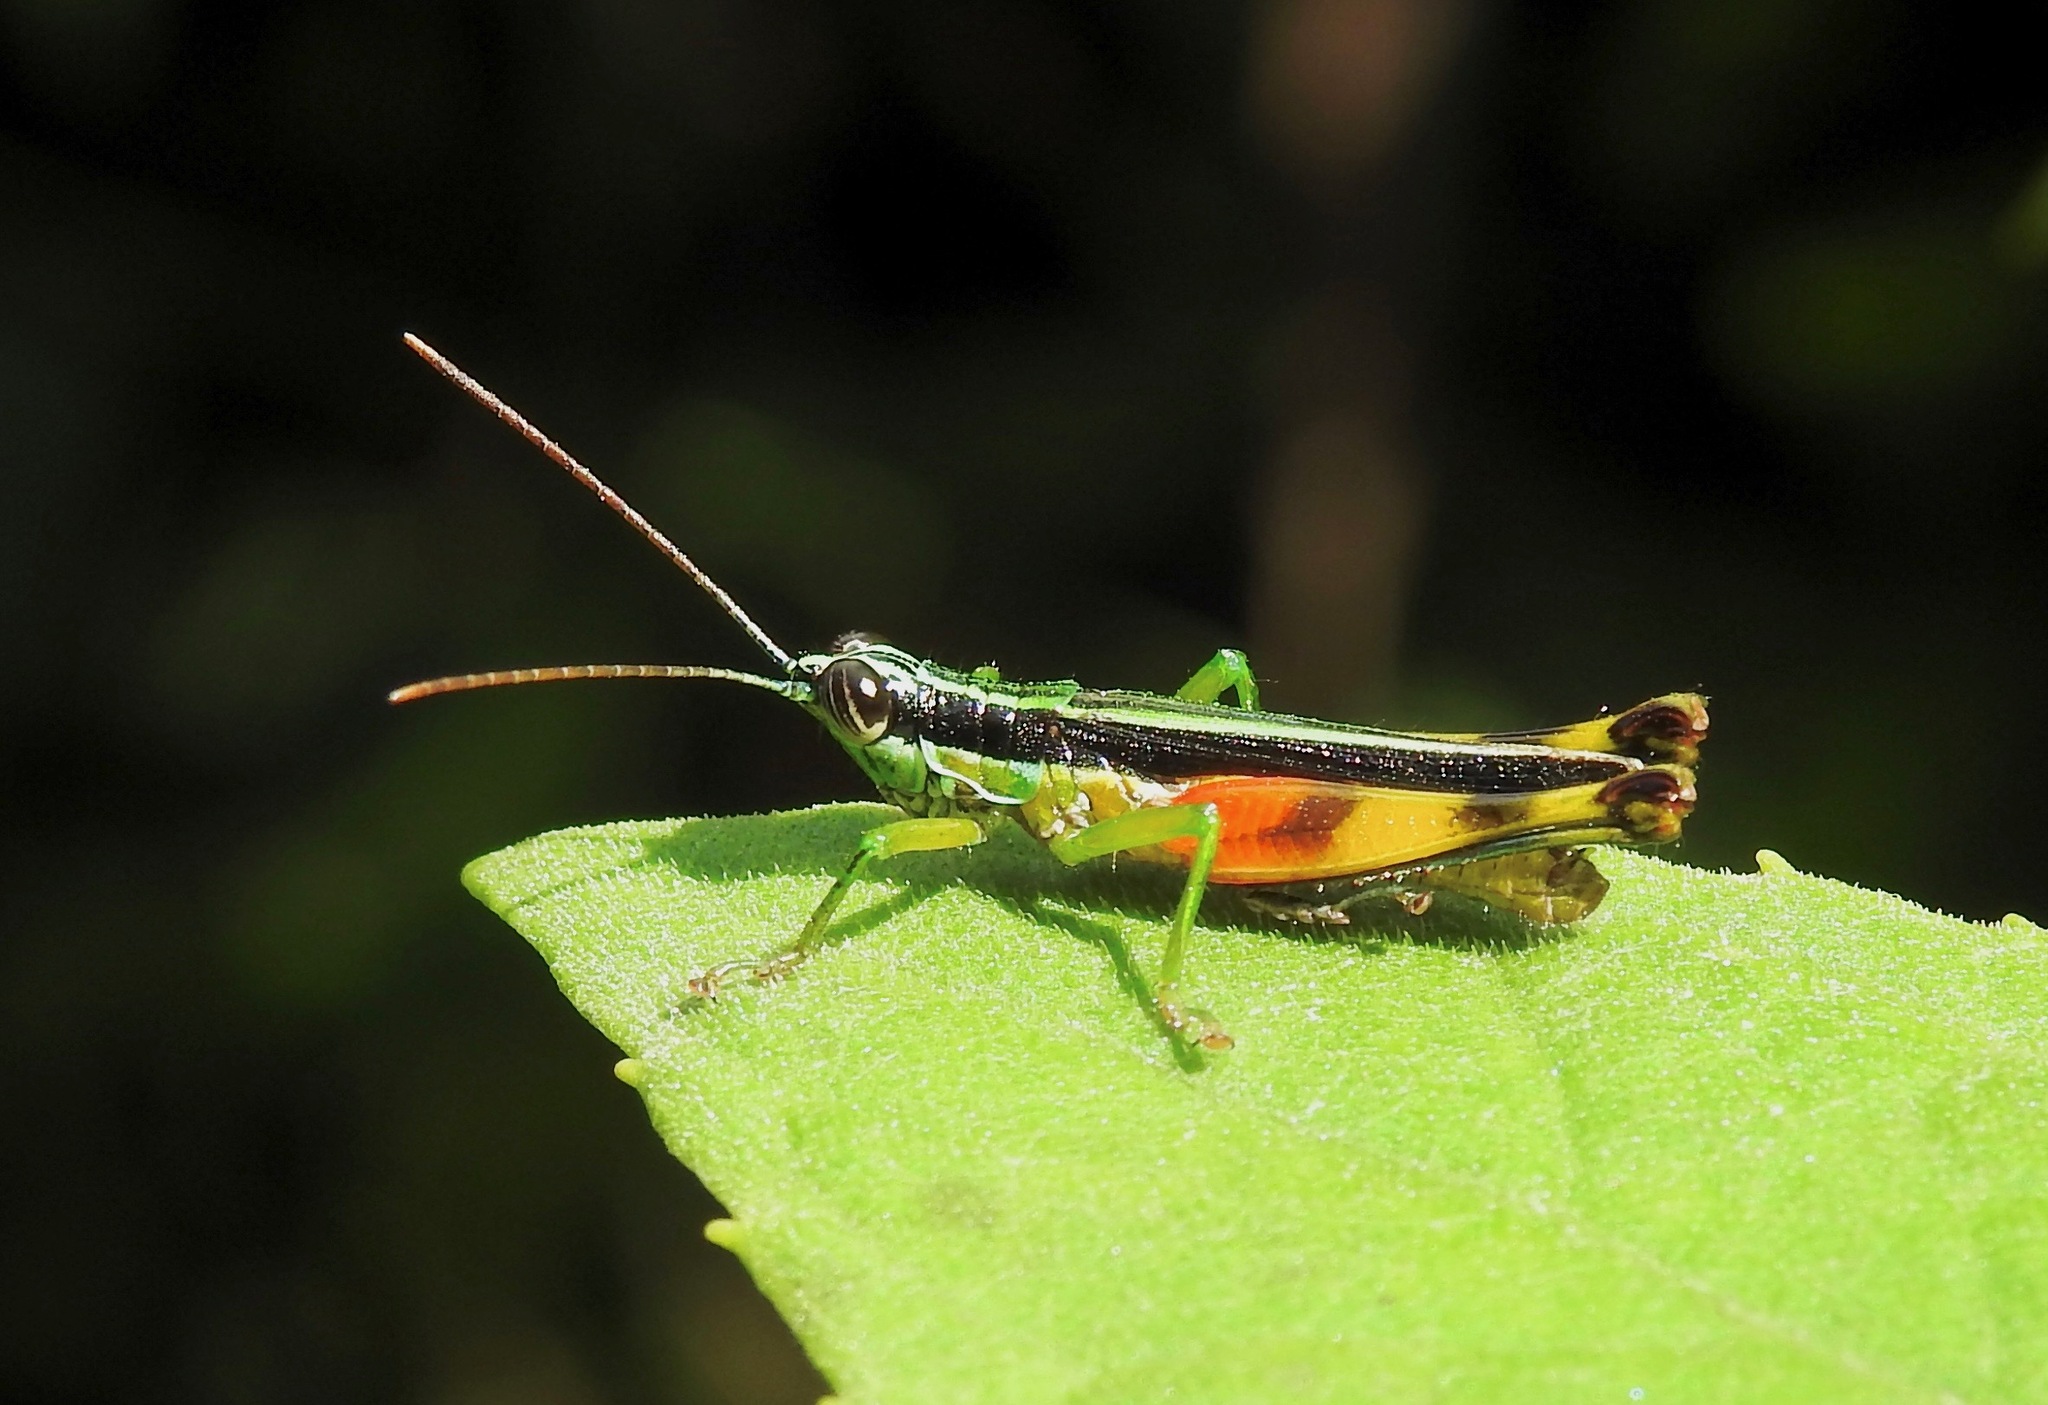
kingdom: Animalia
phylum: Arthropoda
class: Insecta
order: Orthoptera
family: Acrididae
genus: Stenopola
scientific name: Stenopola boliviana
